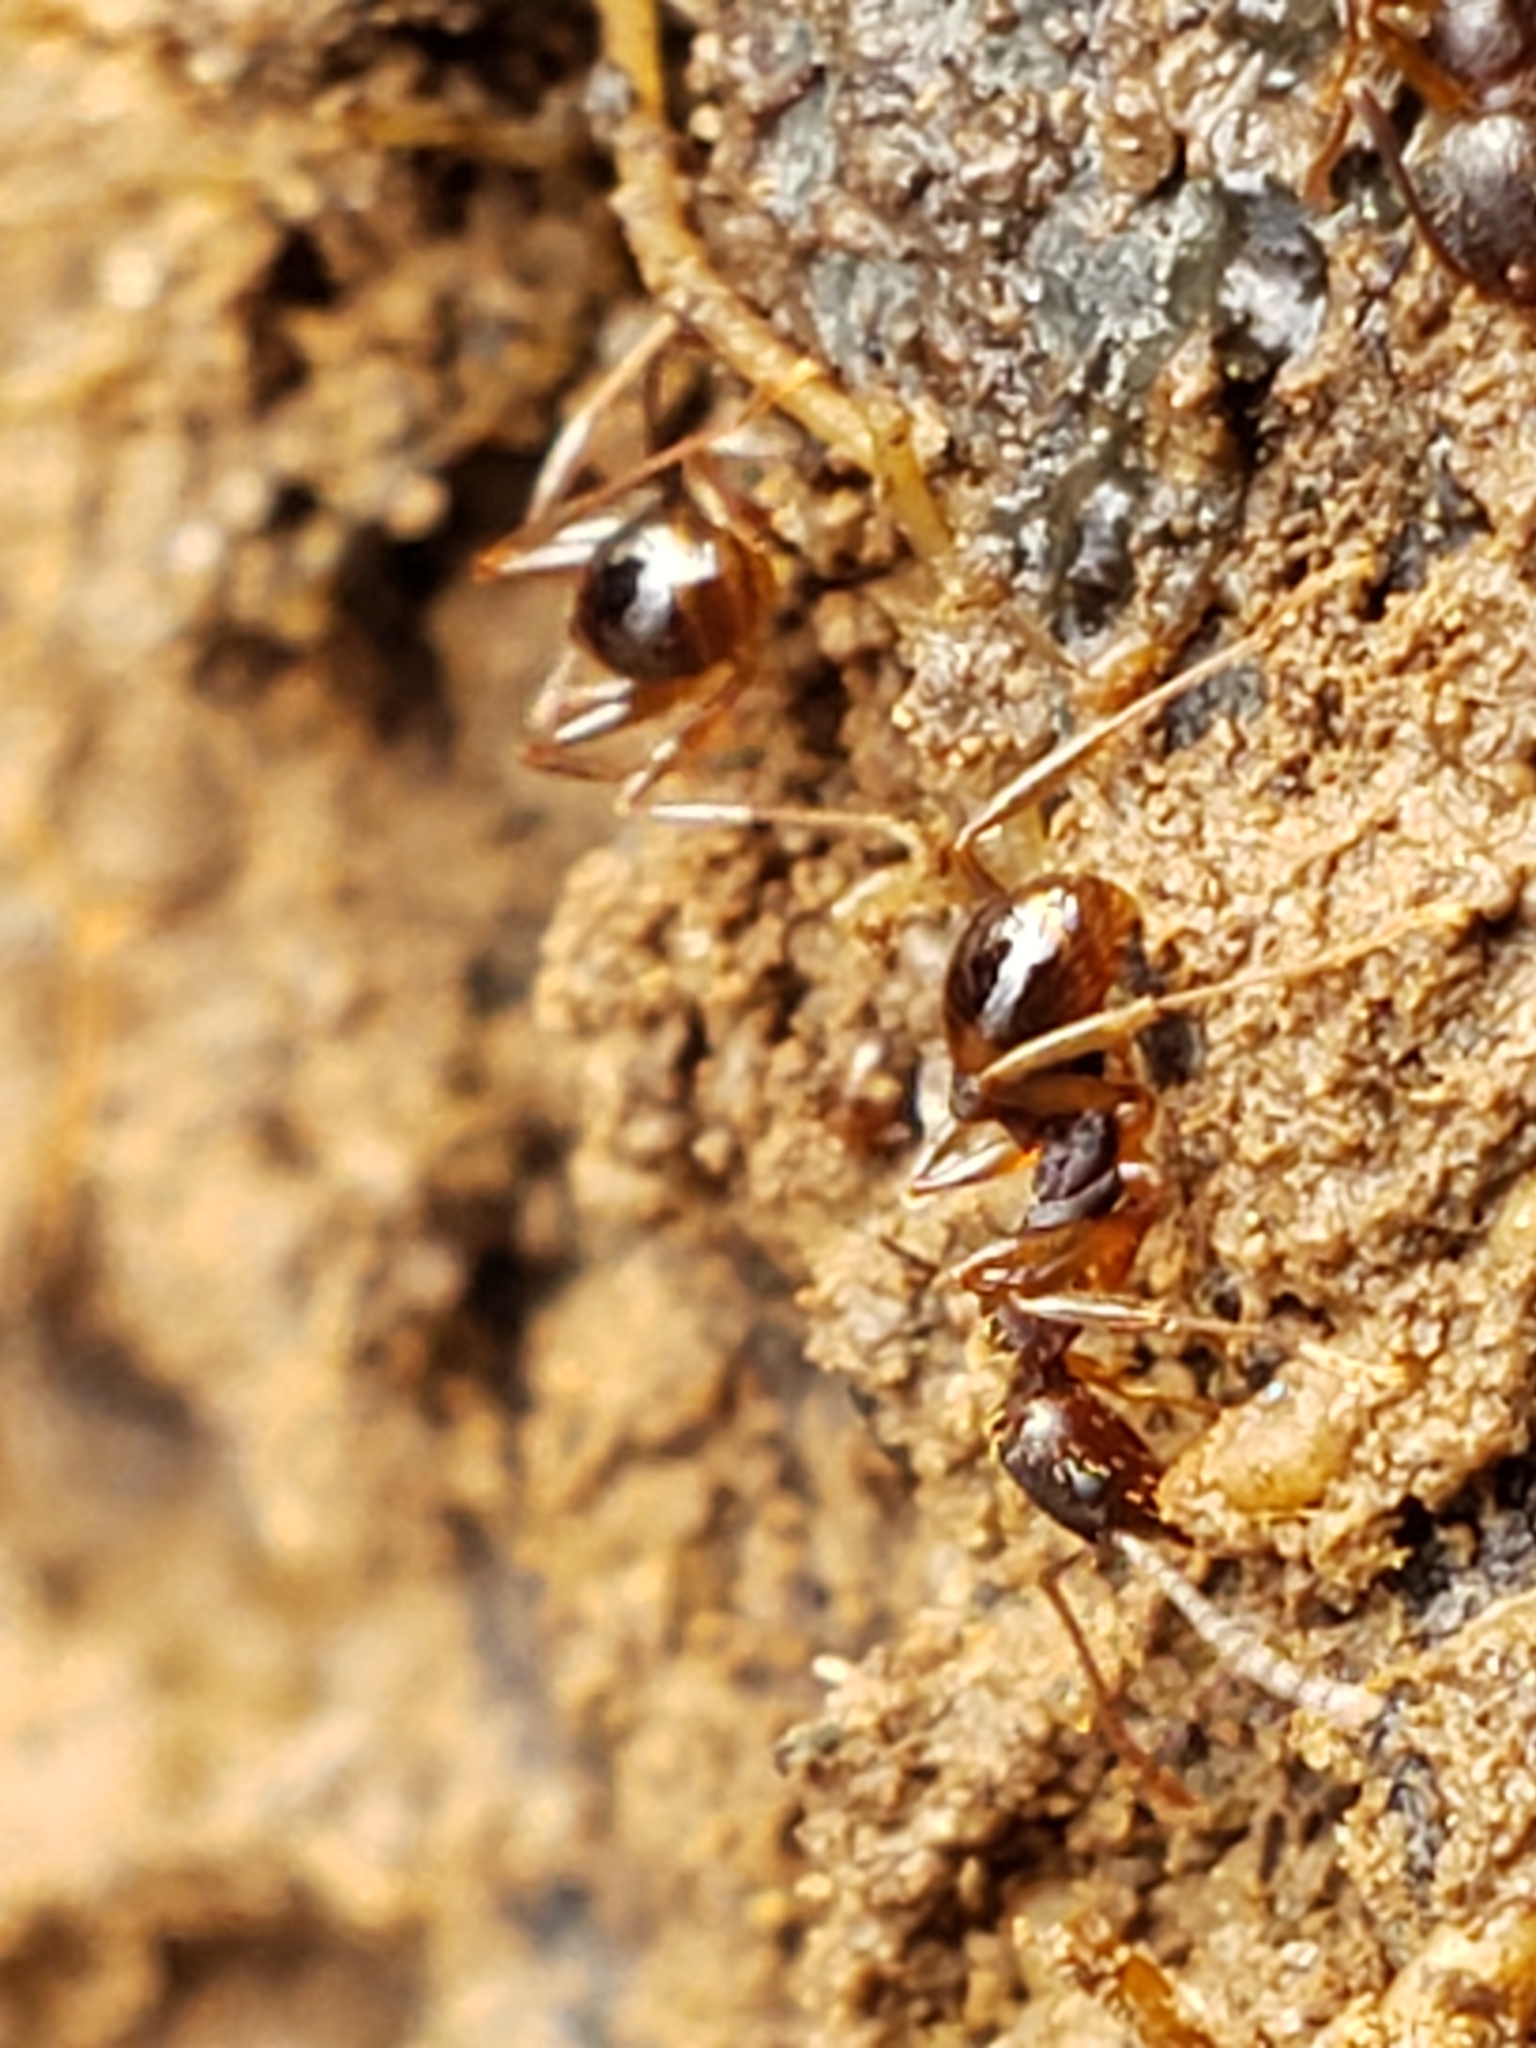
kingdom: Animalia
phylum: Arthropoda
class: Insecta
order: Hymenoptera
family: Formicidae
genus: Aphaenogaster
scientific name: Aphaenogaster rudis
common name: Winnow ant
